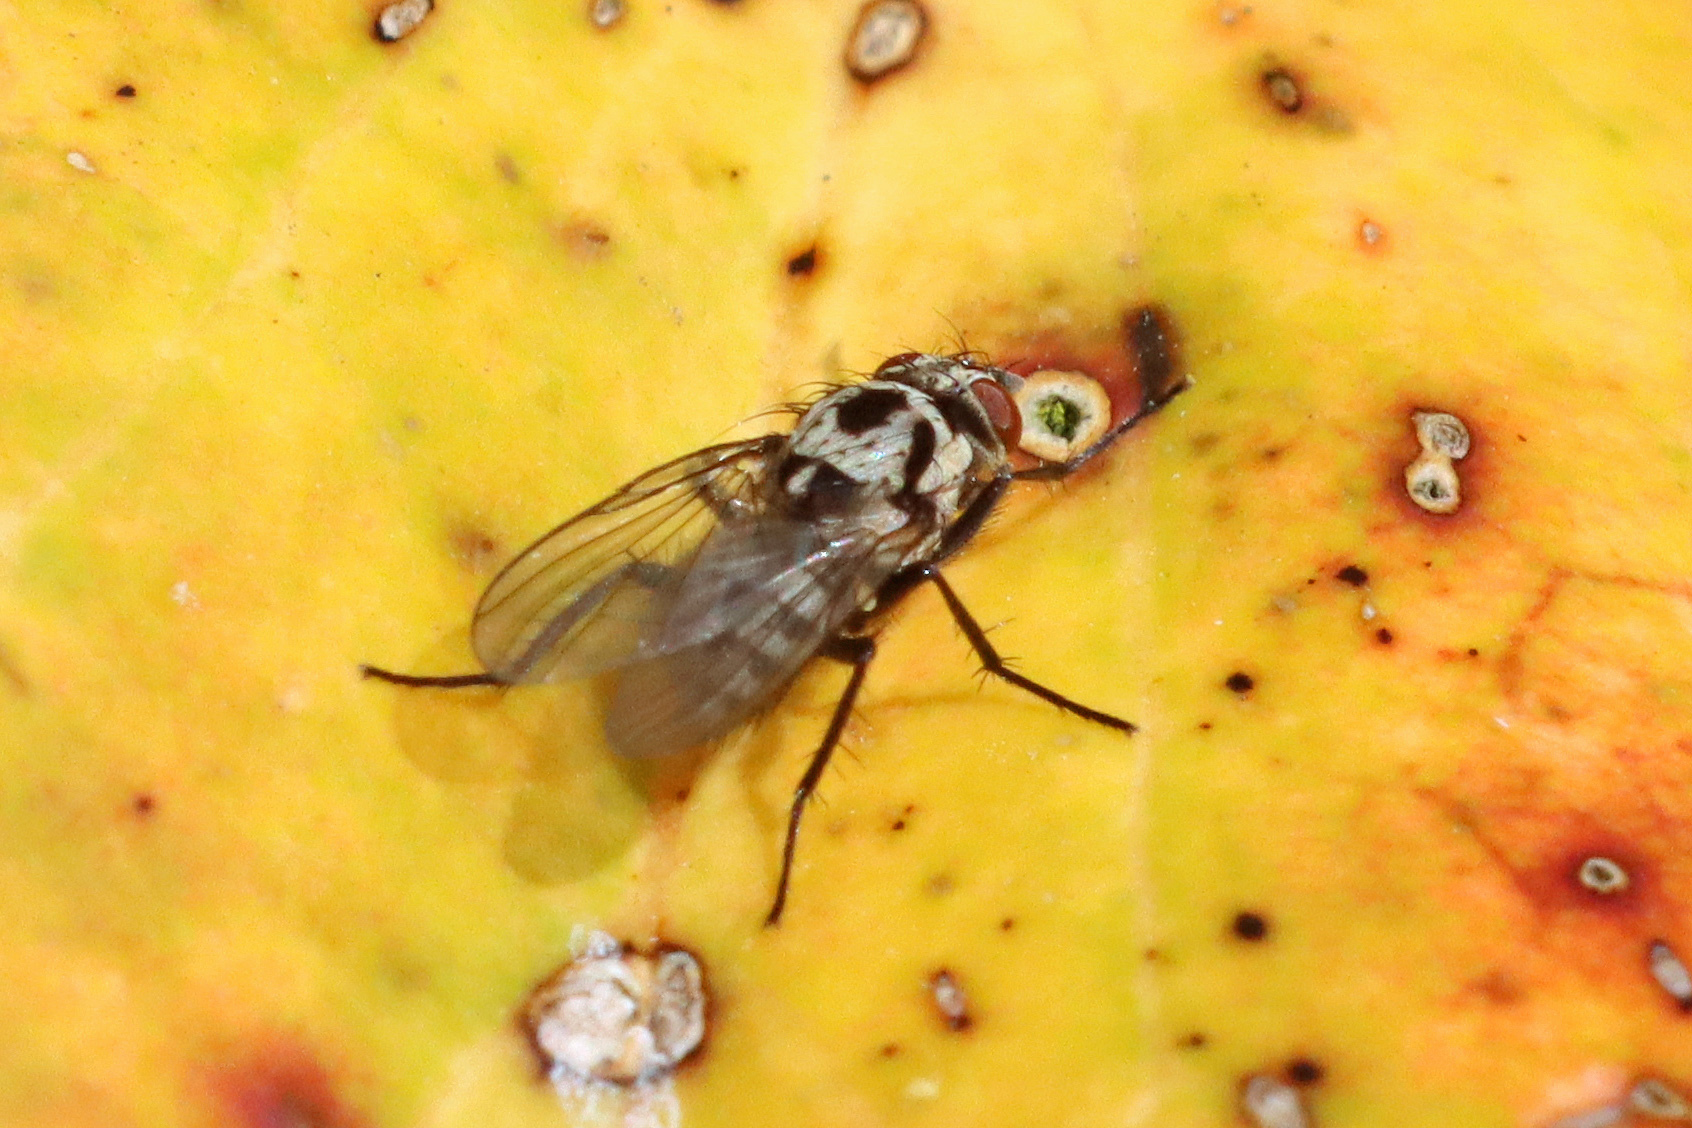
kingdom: Animalia
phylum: Arthropoda
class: Insecta
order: Diptera
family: Anthomyiidae
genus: Anthomyia
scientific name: Anthomyia
